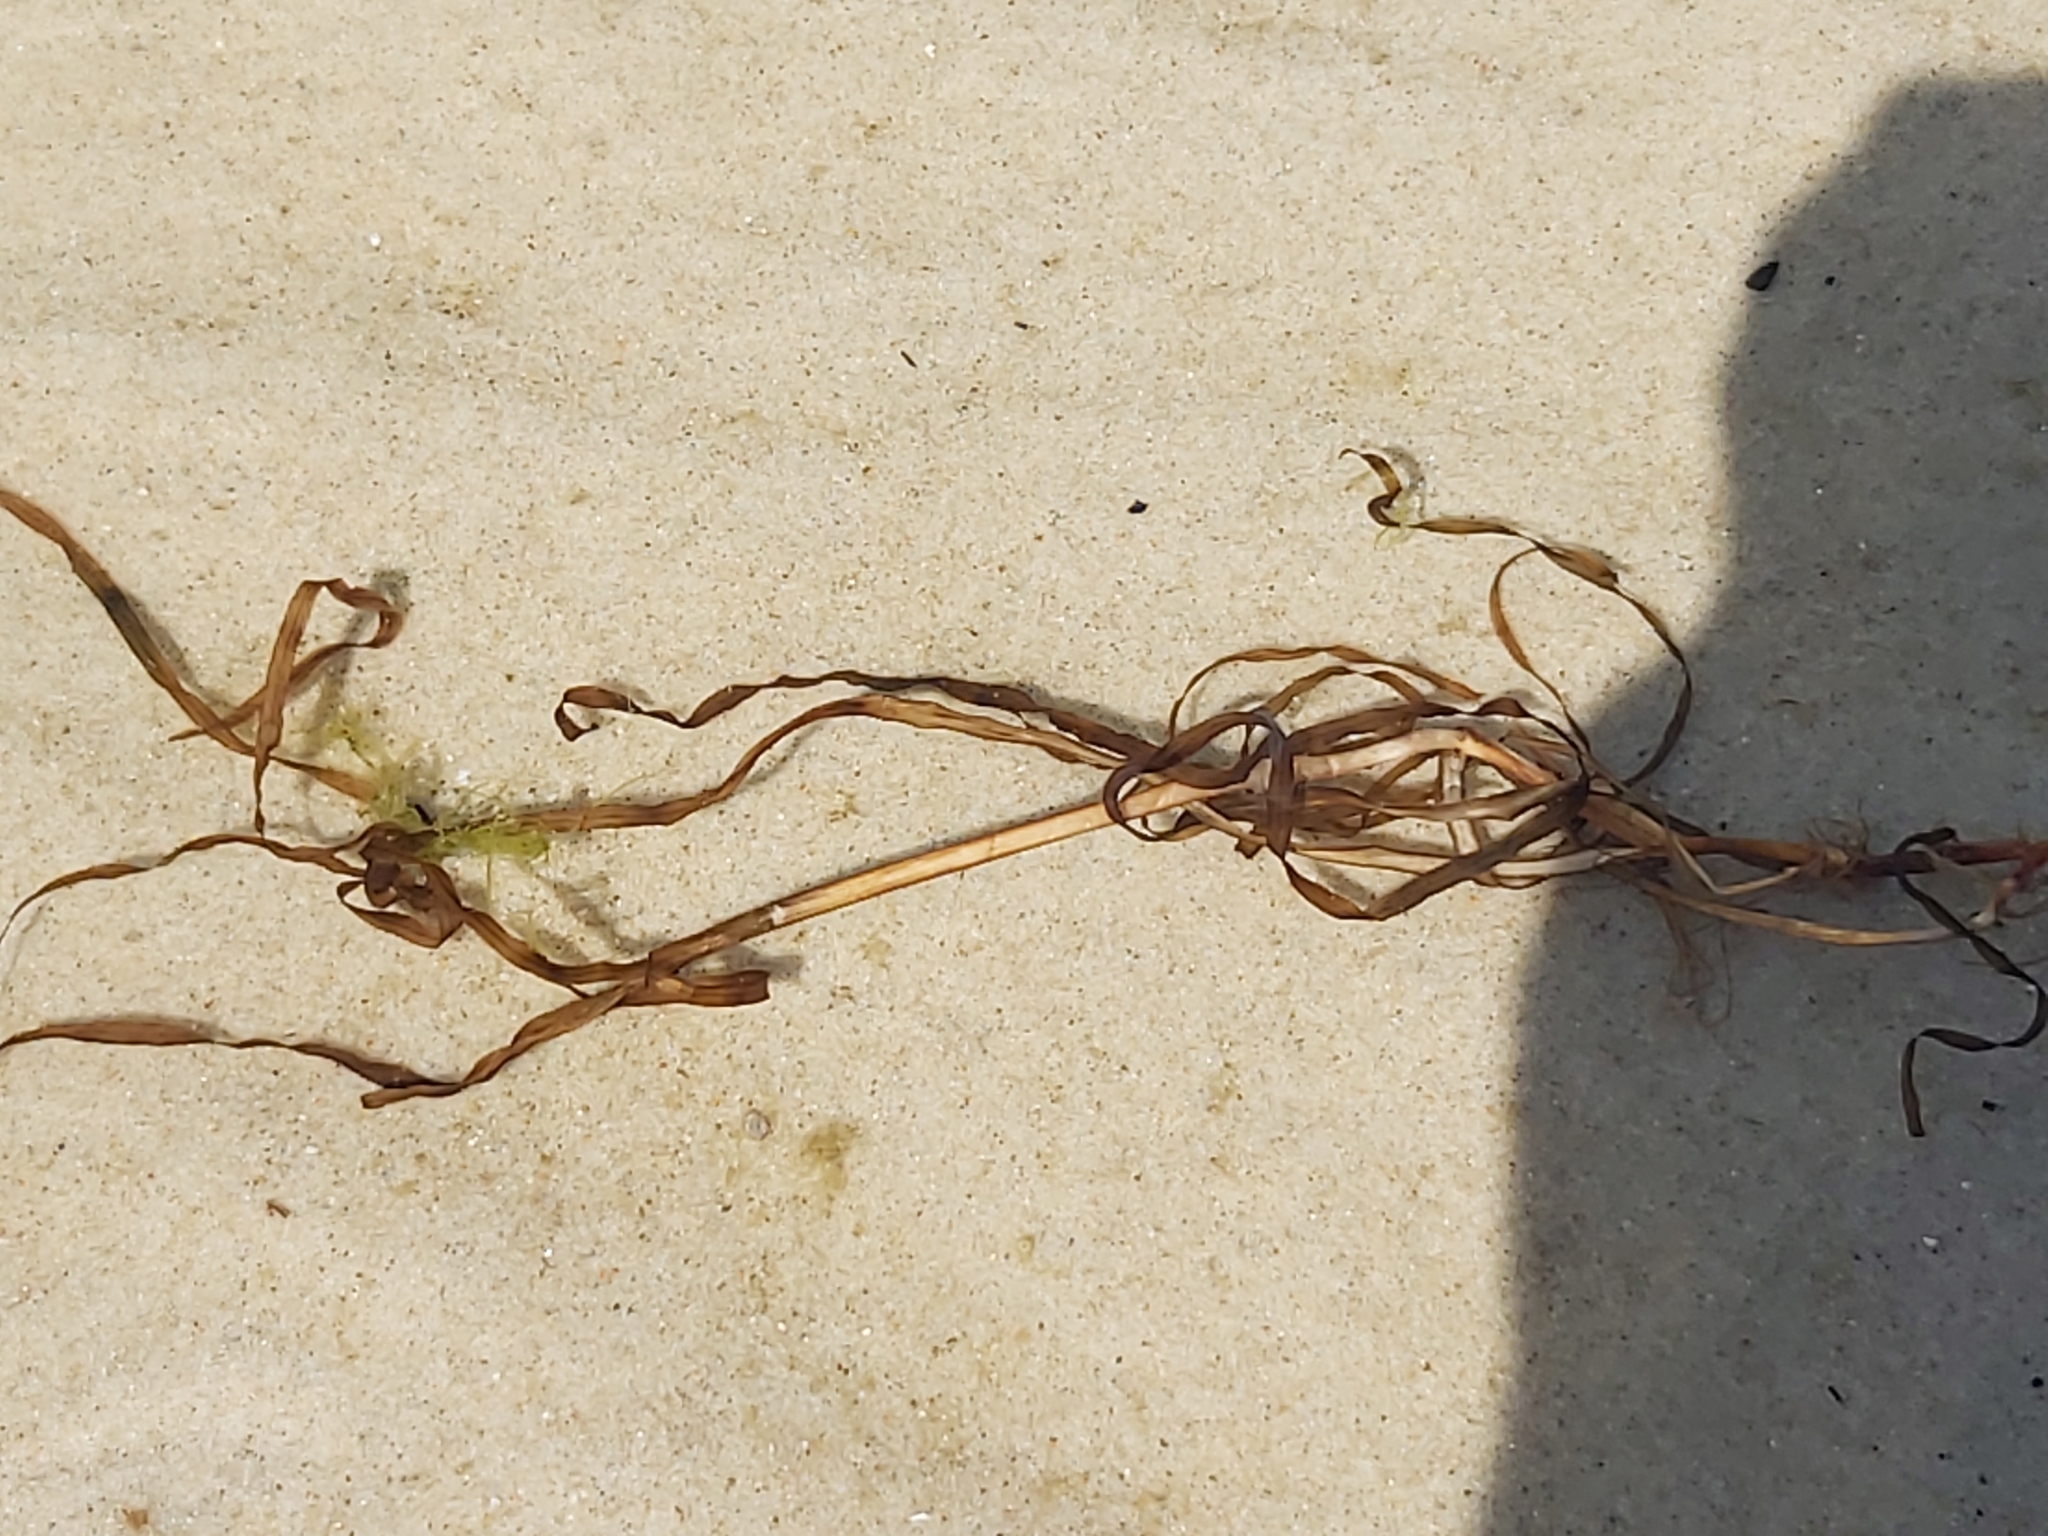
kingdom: Plantae
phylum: Tracheophyta
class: Liliopsida
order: Alismatales
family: Zosteraceae
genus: Zostera
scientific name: Zostera marina
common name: Eelgrass
